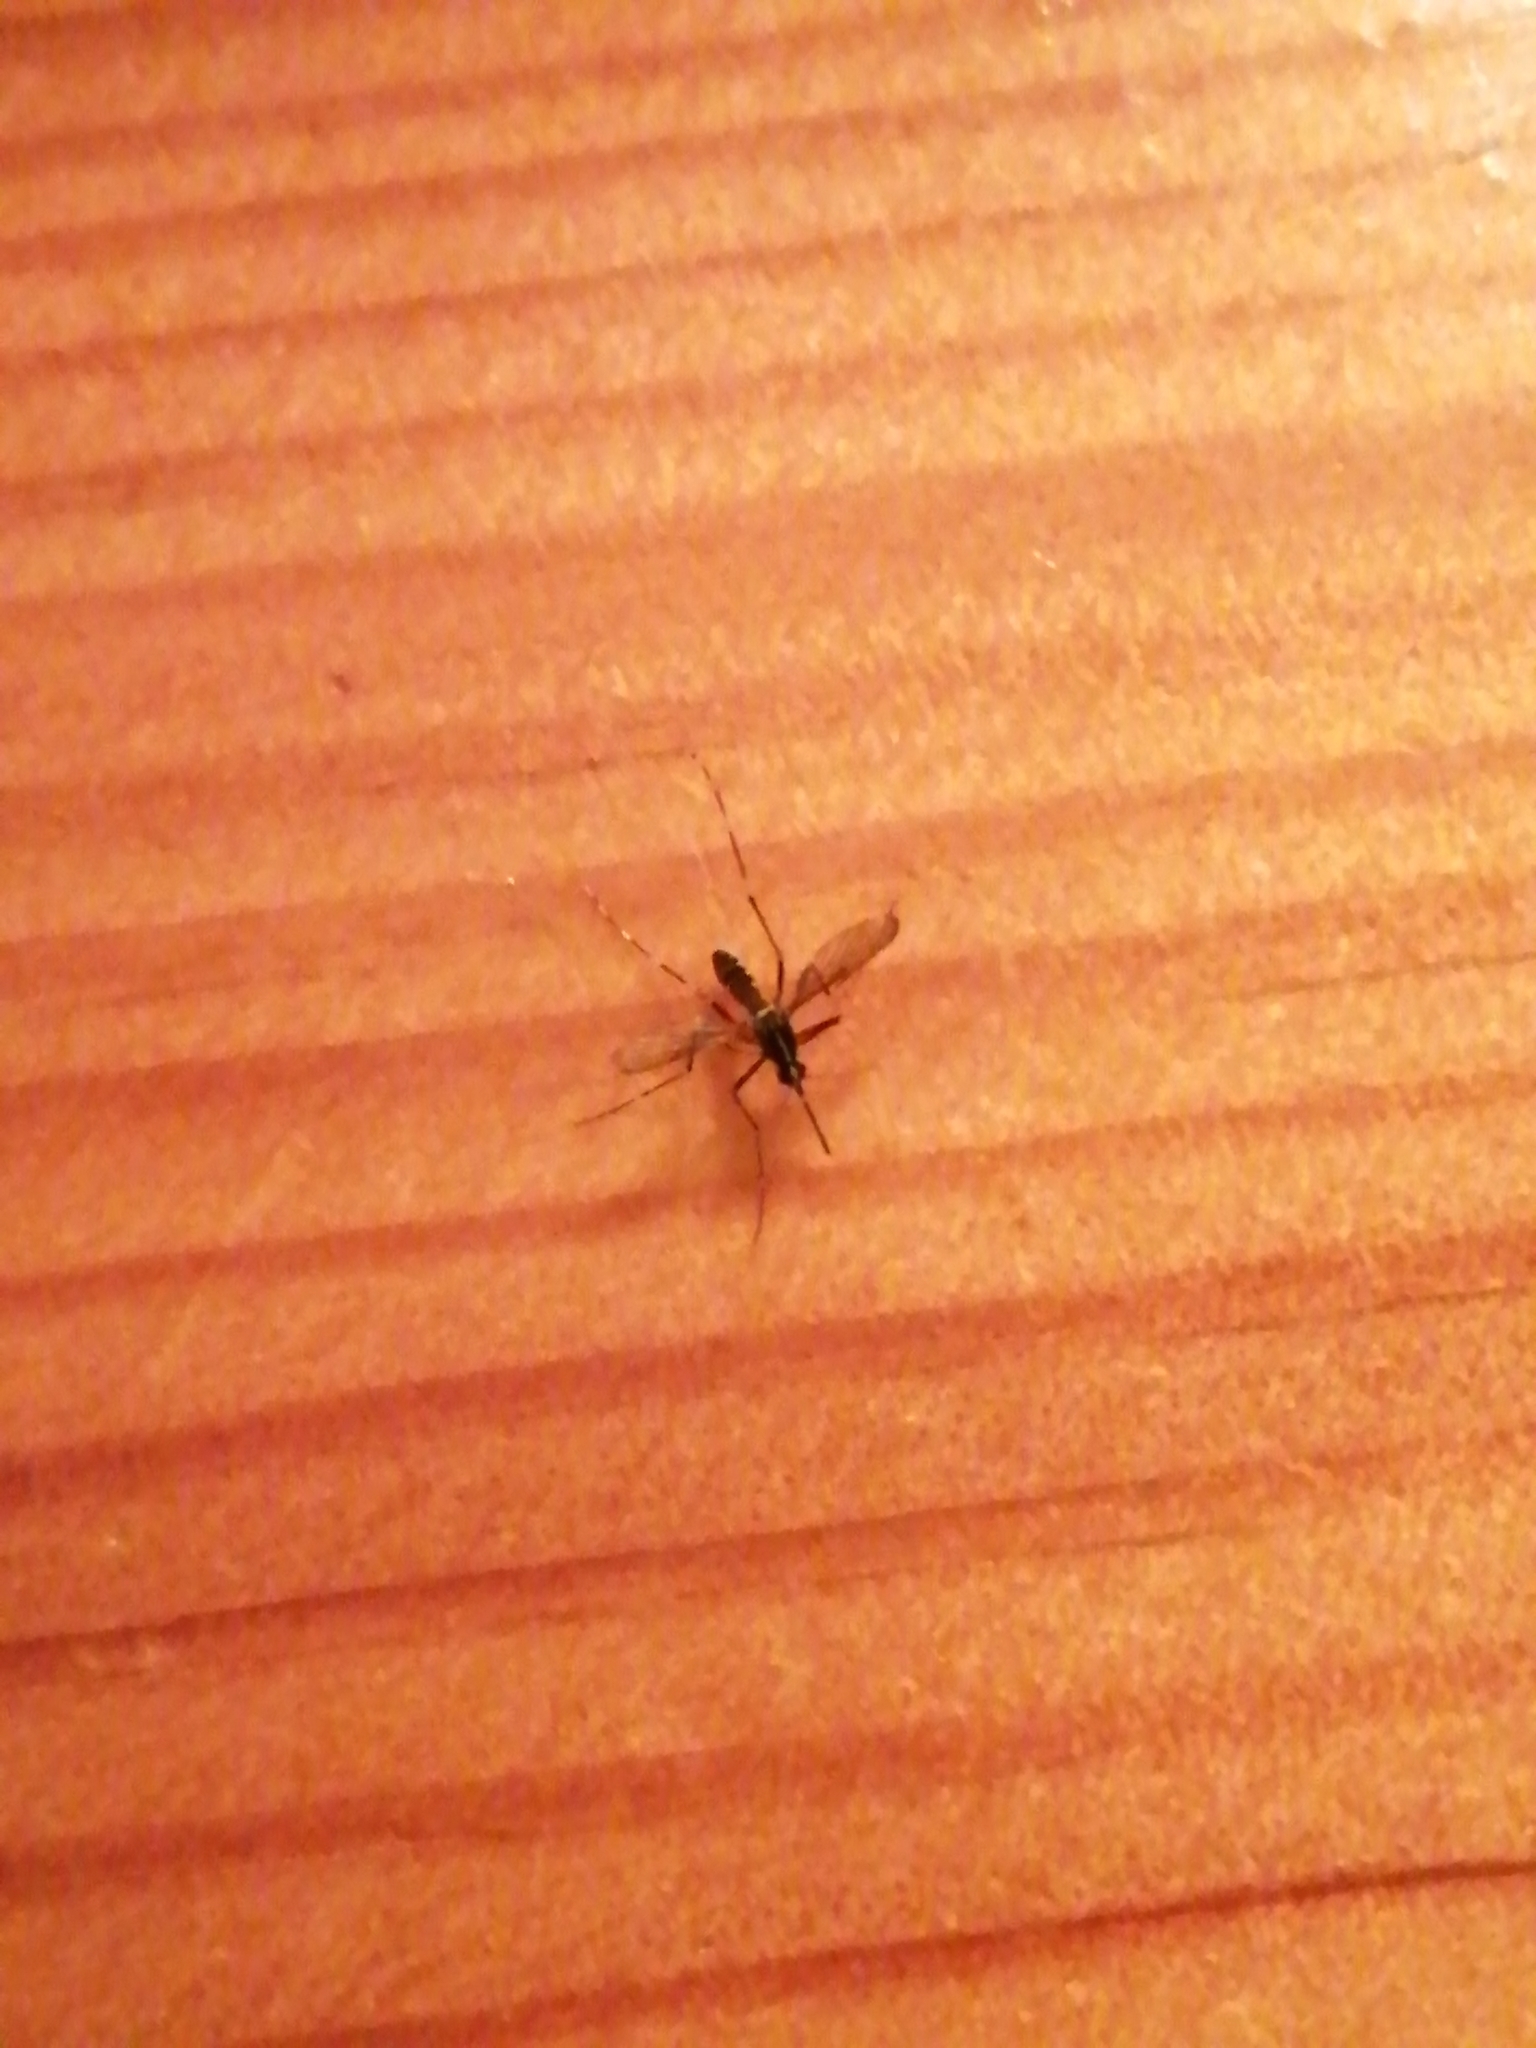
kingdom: Animalia
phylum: Arthropoda
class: Insecta
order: Diptera
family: Culicidae
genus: Aedes
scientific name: Aedes albopictus
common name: Tiger mosquito
